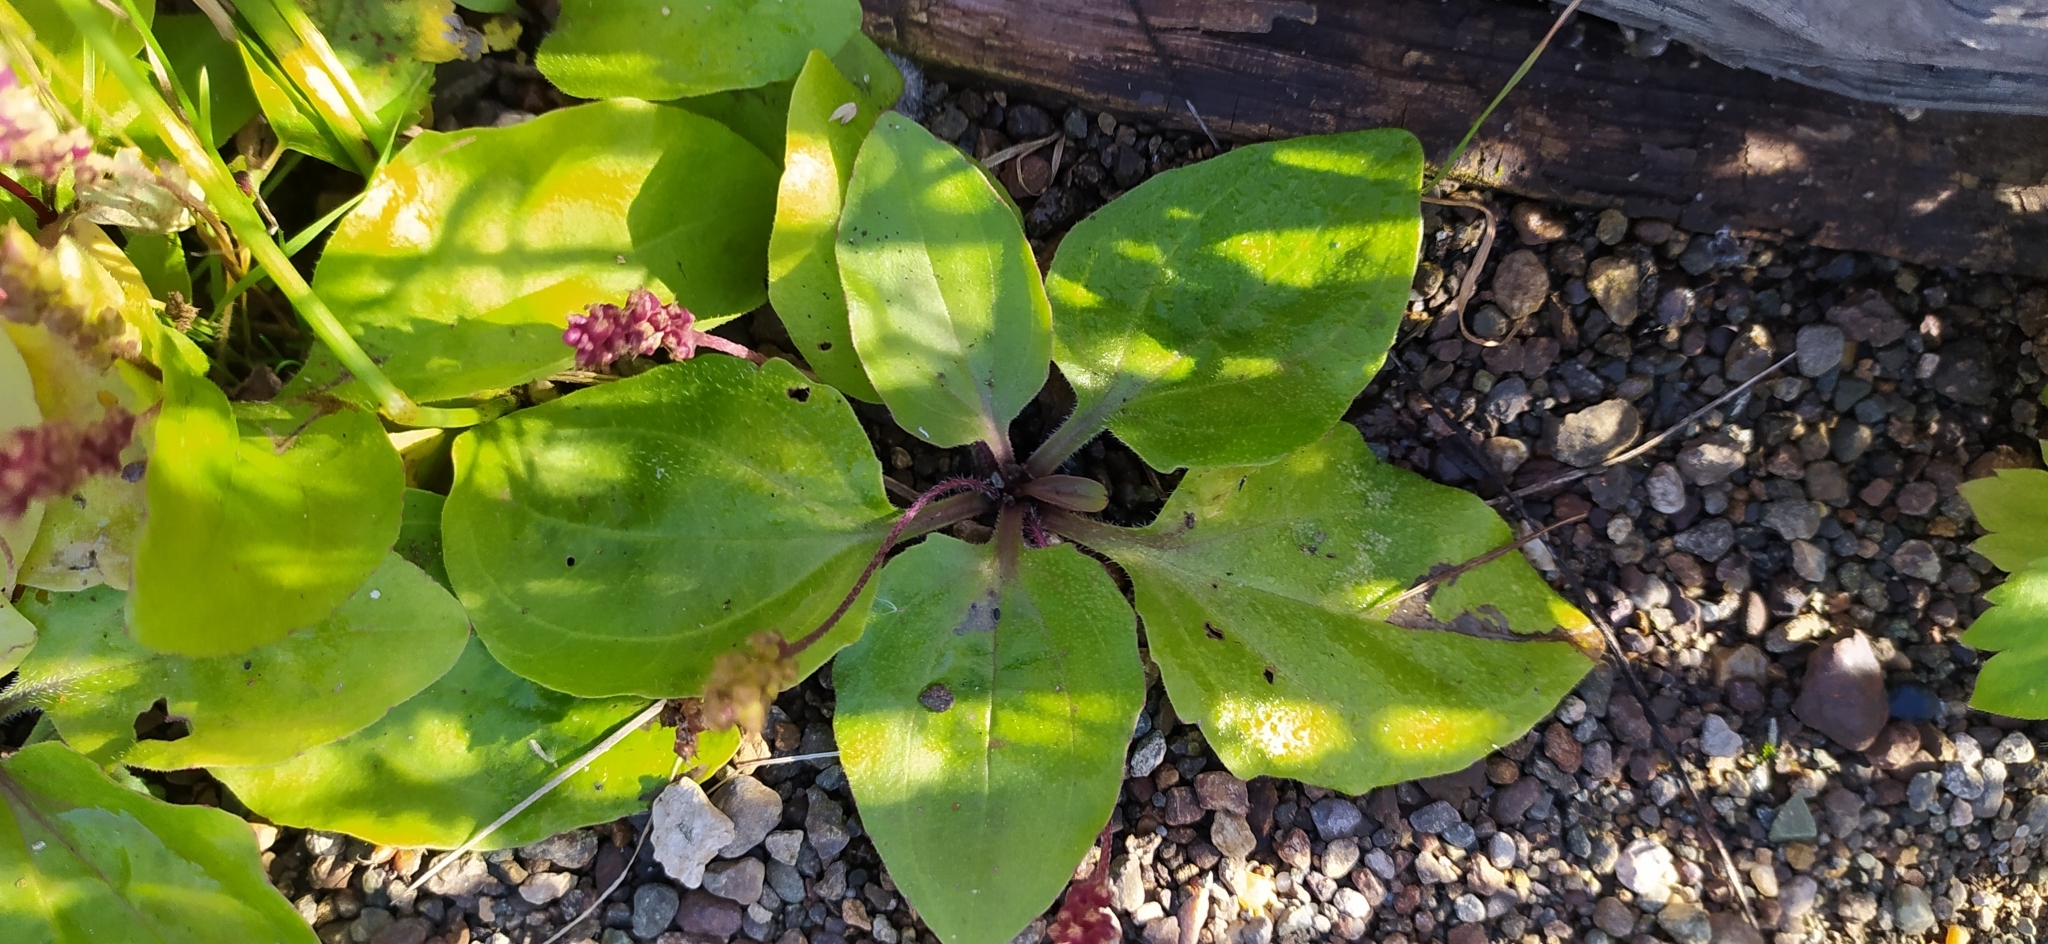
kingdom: Plantae
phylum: Tracheophyta
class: Magnoliopsida
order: Lamiales
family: Plantaginaceae
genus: Plantago
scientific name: Plantago major
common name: Common plantain
